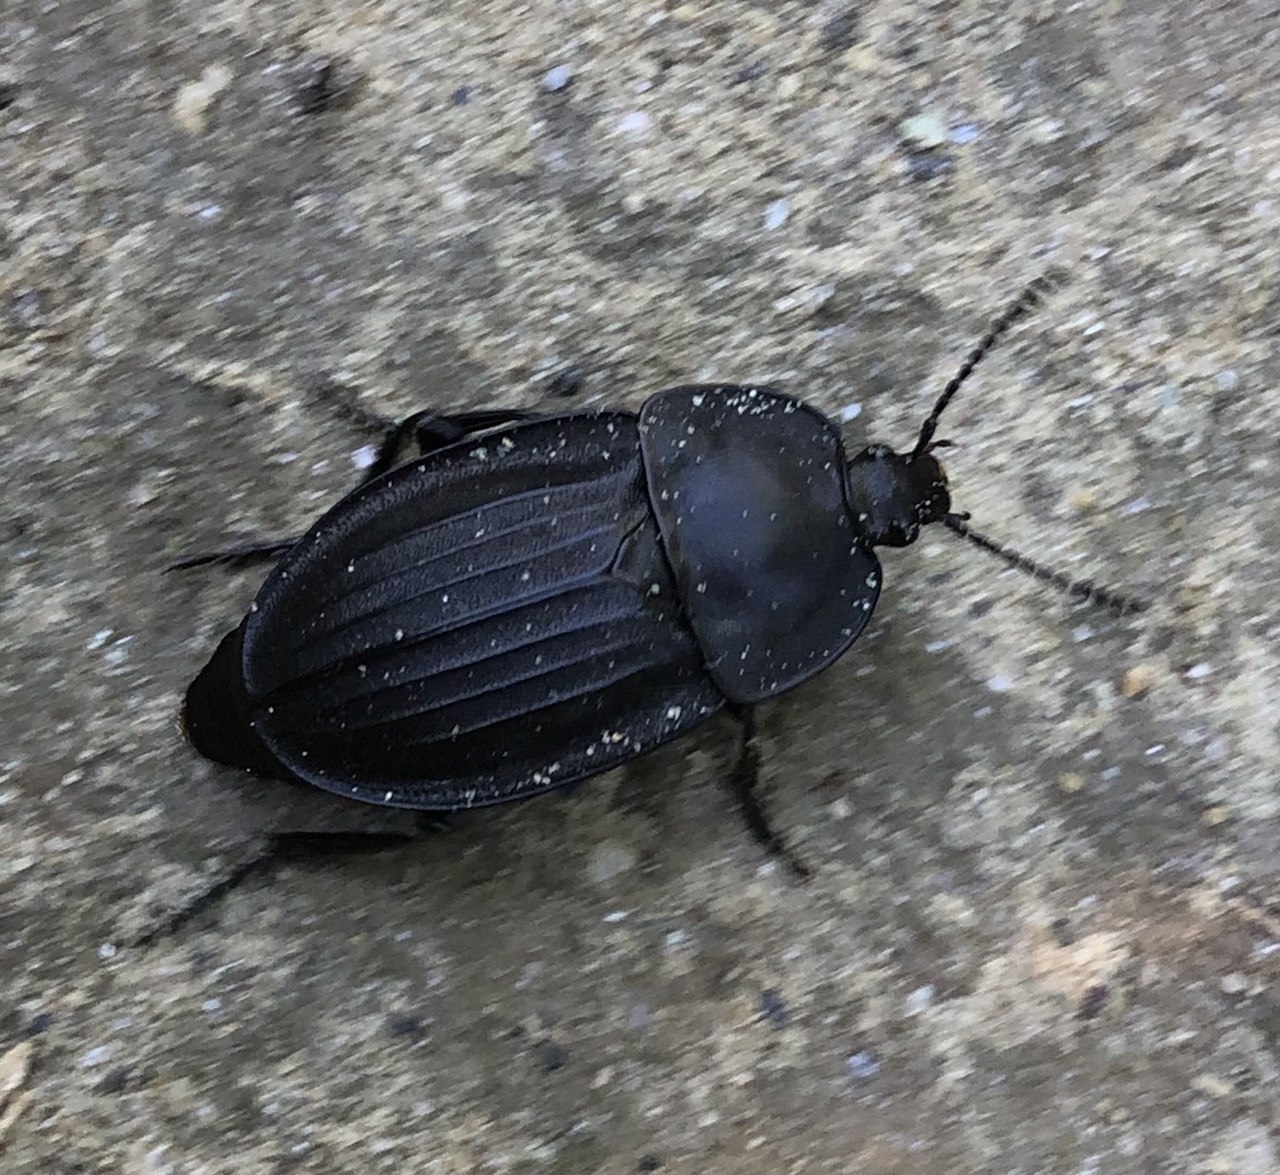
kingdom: Animalia
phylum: Arthropoda
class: Insecta
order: Coleoptera
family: Staphylinidae
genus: Silpha
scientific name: Silpha carinata
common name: Silphid beetle
